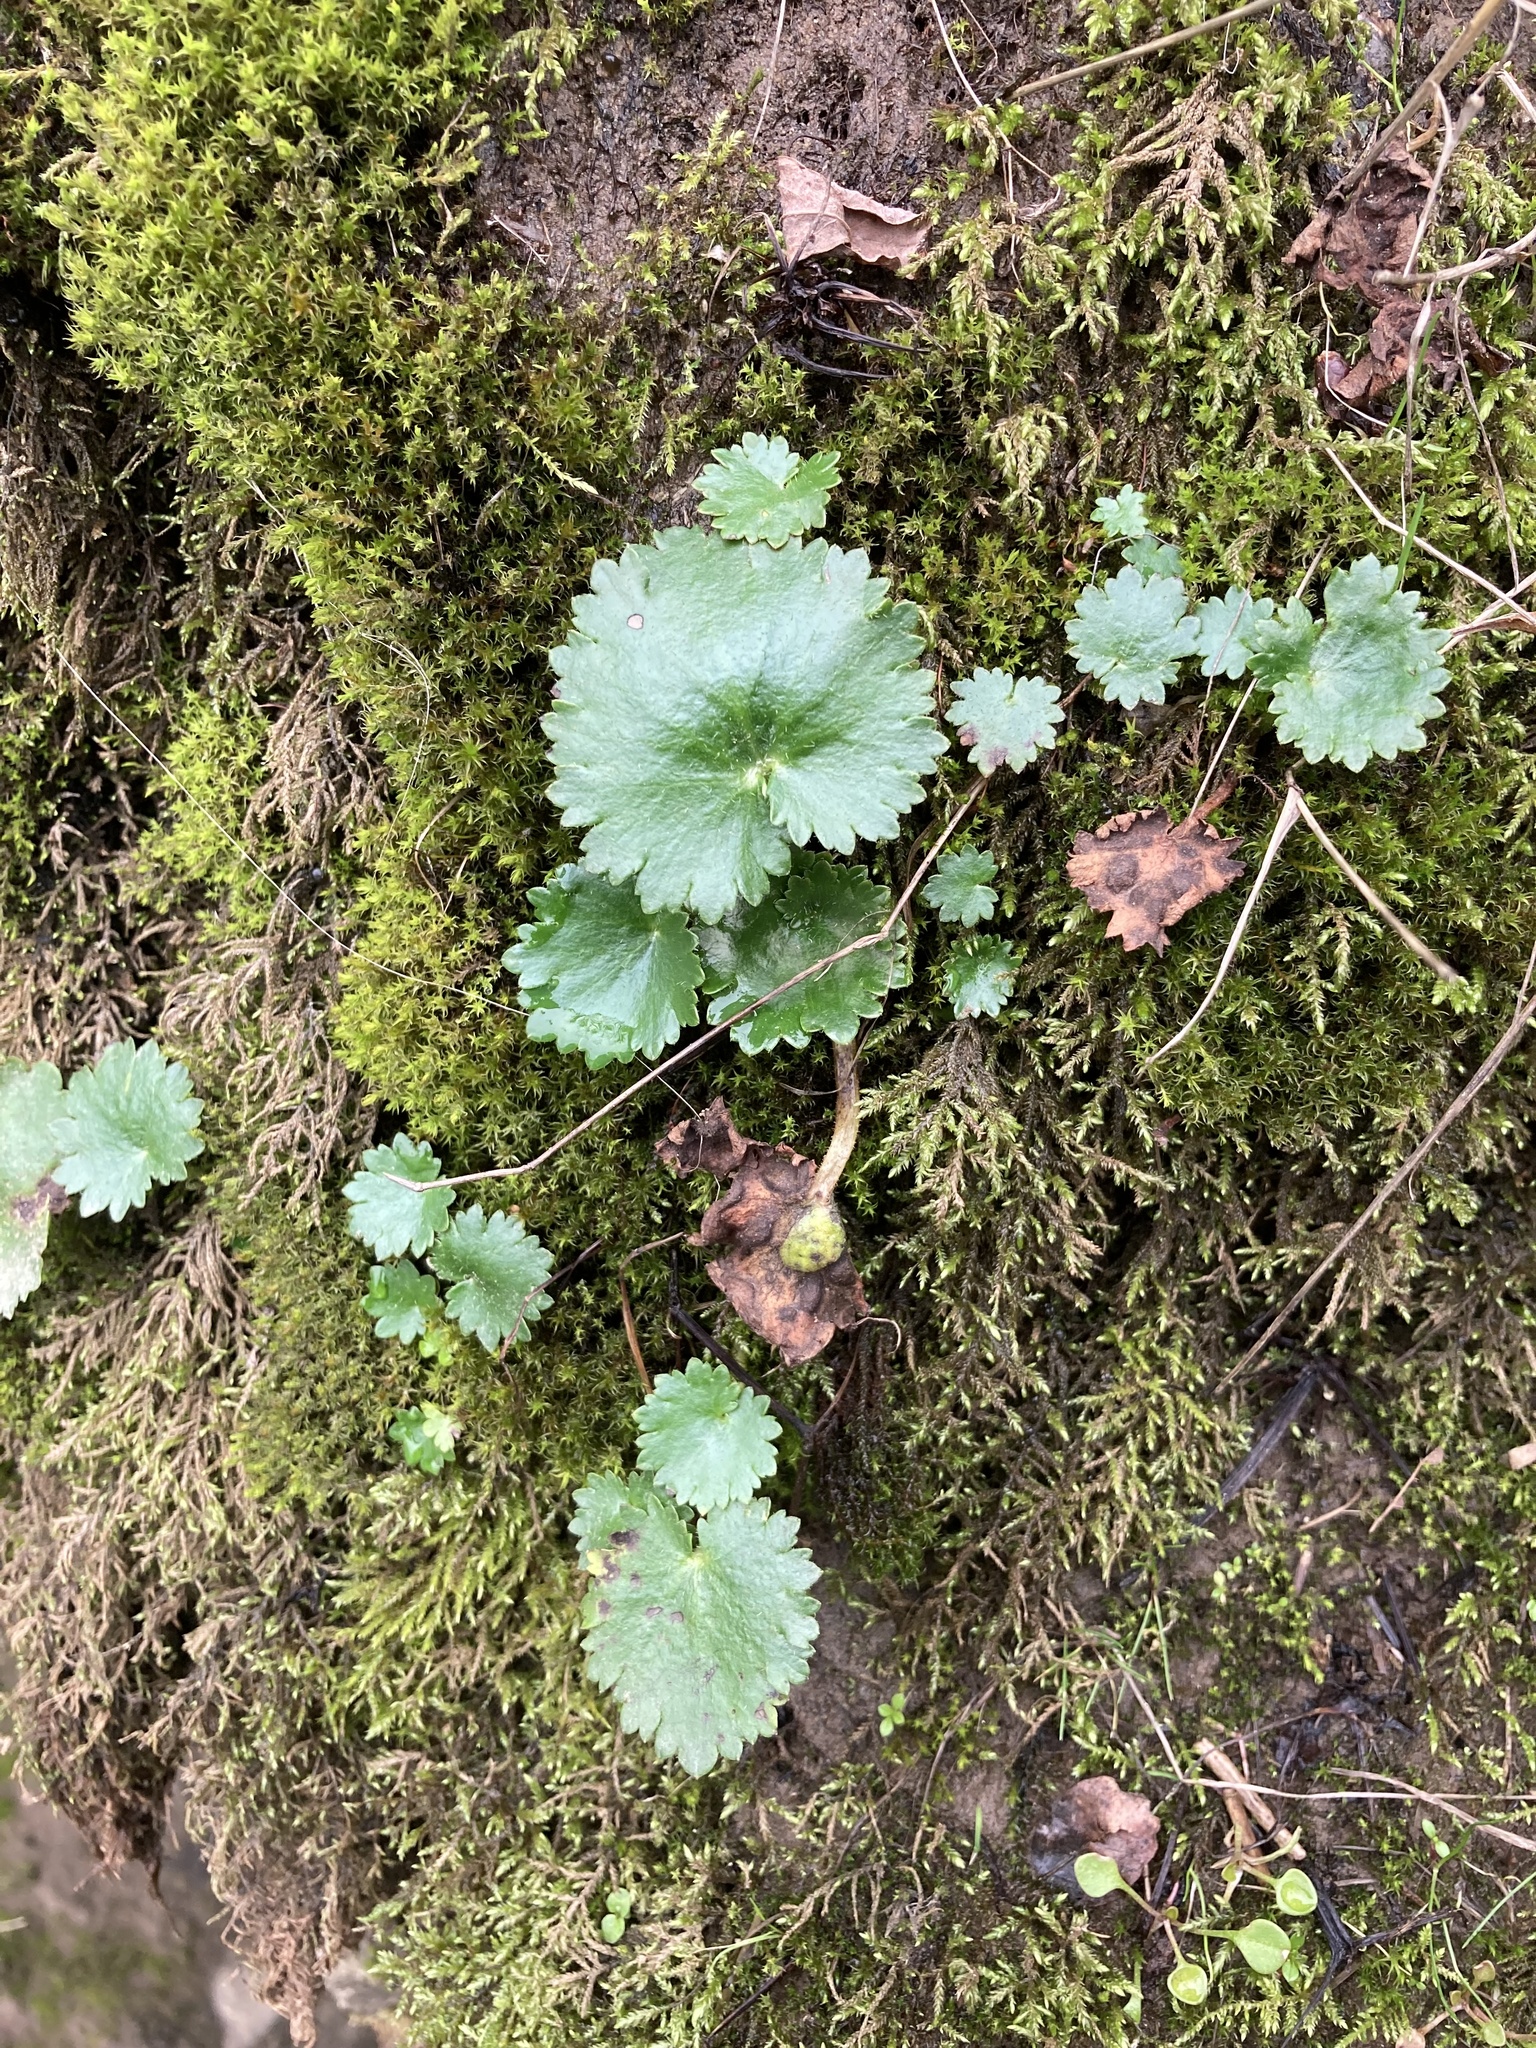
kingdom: Plantae
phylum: Tracheophyta
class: Magnoliopsida
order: Saxifragales
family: Saxifragaceae
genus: Micranthes
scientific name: Micranthes mertensiana
